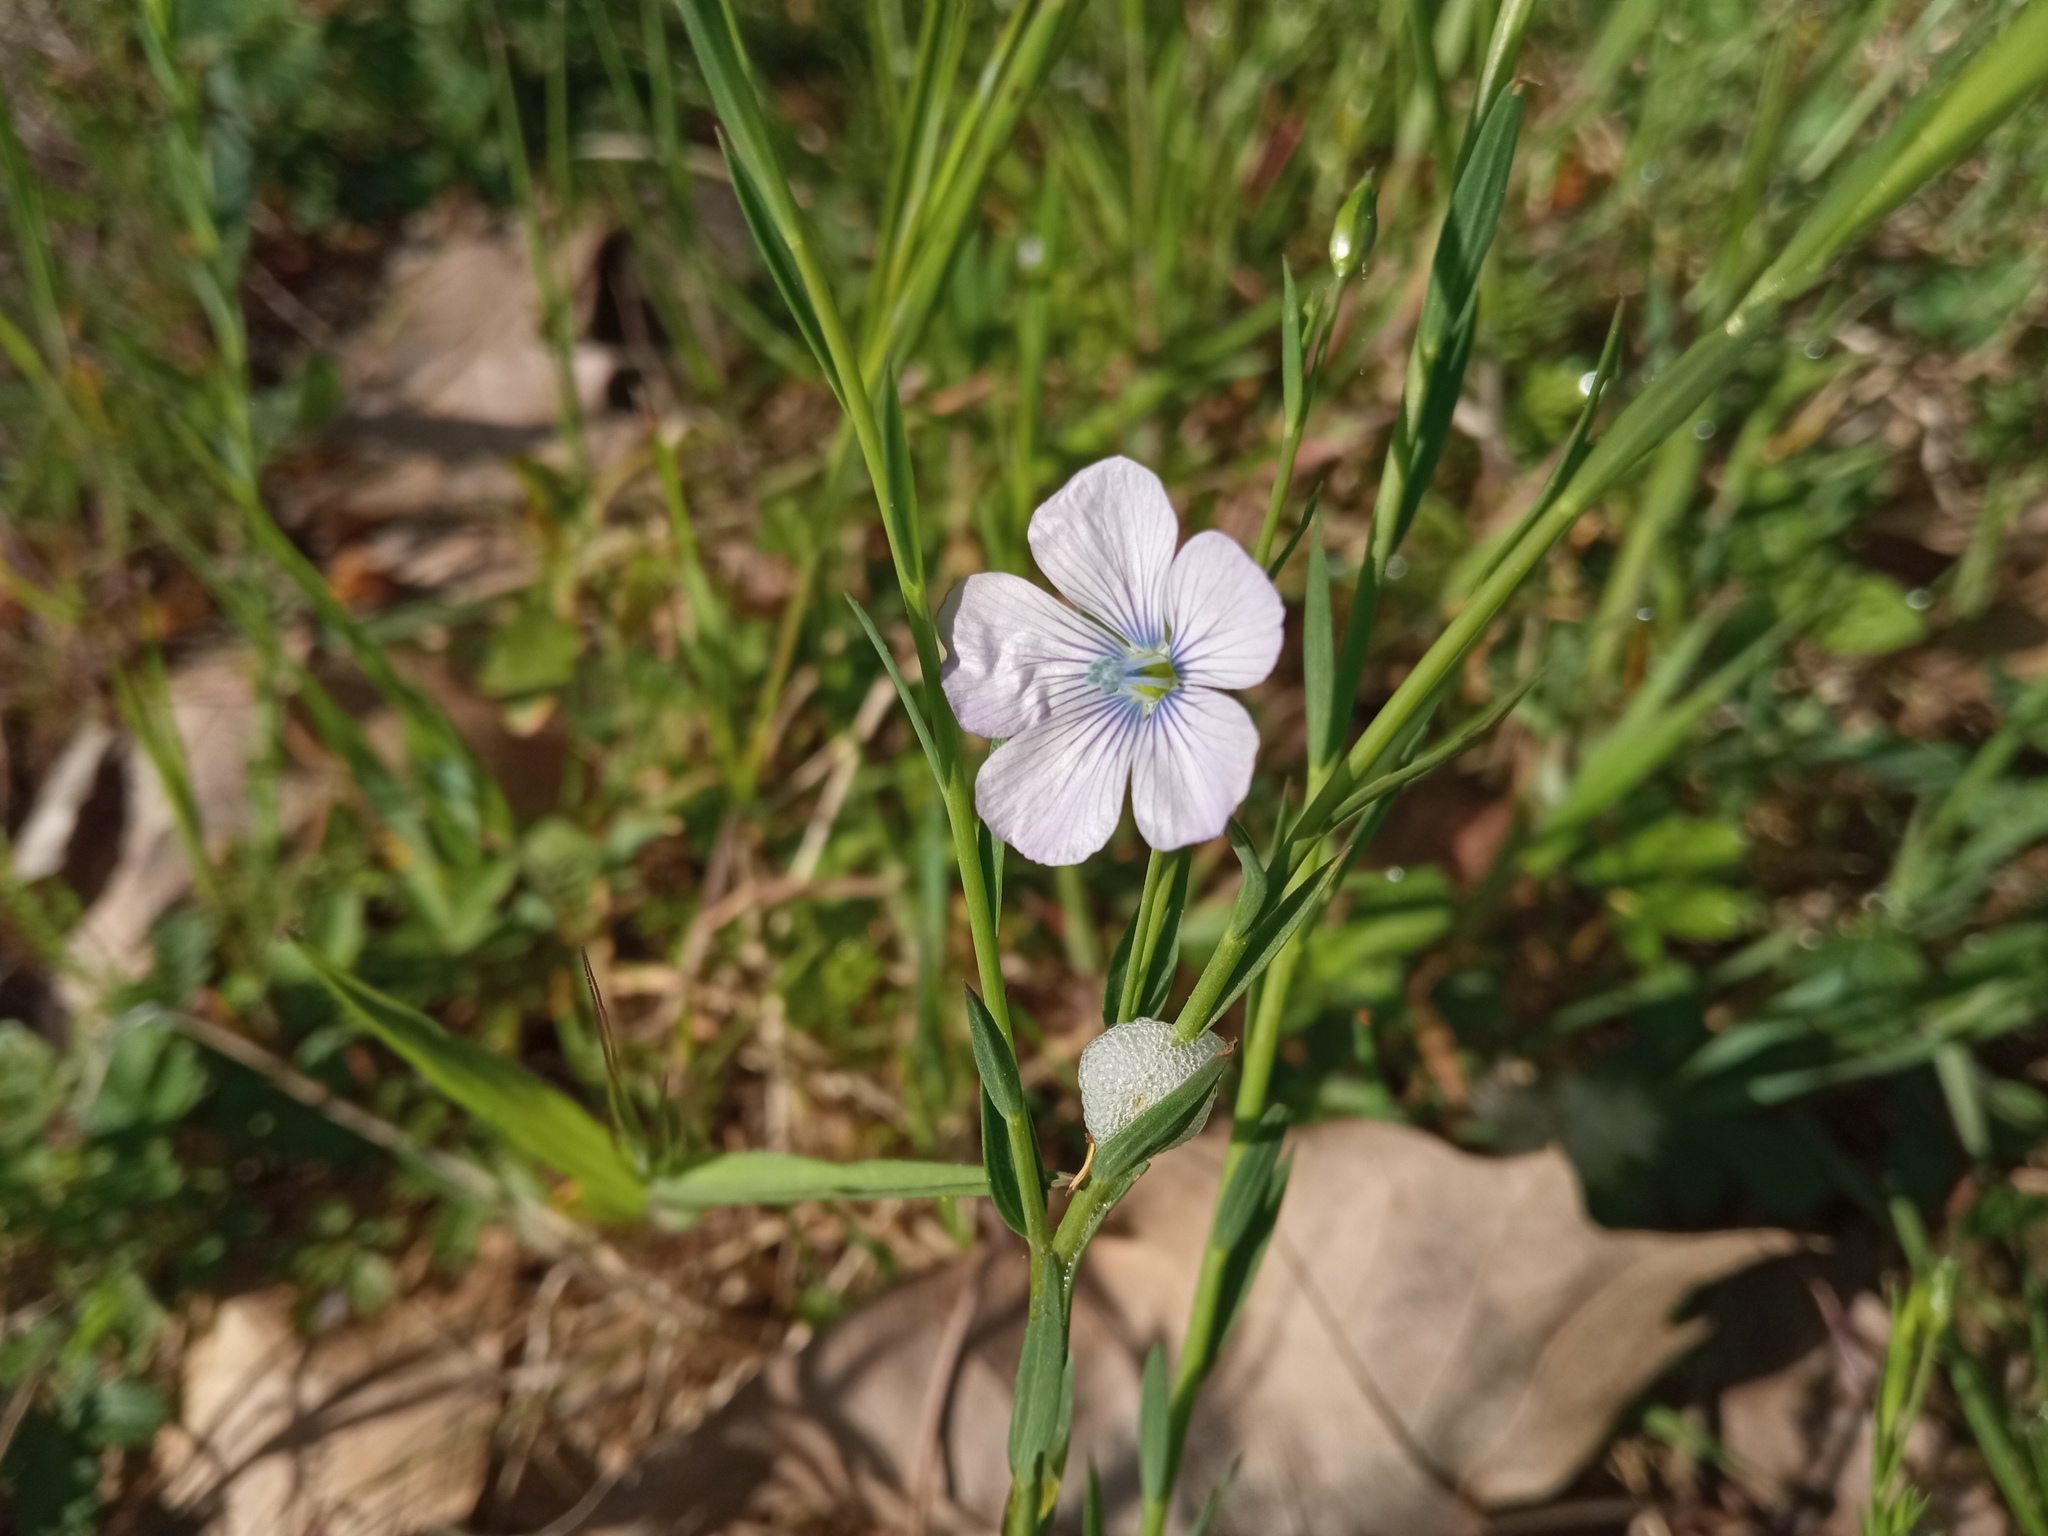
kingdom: Plantae
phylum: Tracheophyta
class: Magnoliopsida
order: Malpighiales
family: Linaceae
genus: Linum
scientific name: Linum bienne
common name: Pale flax
